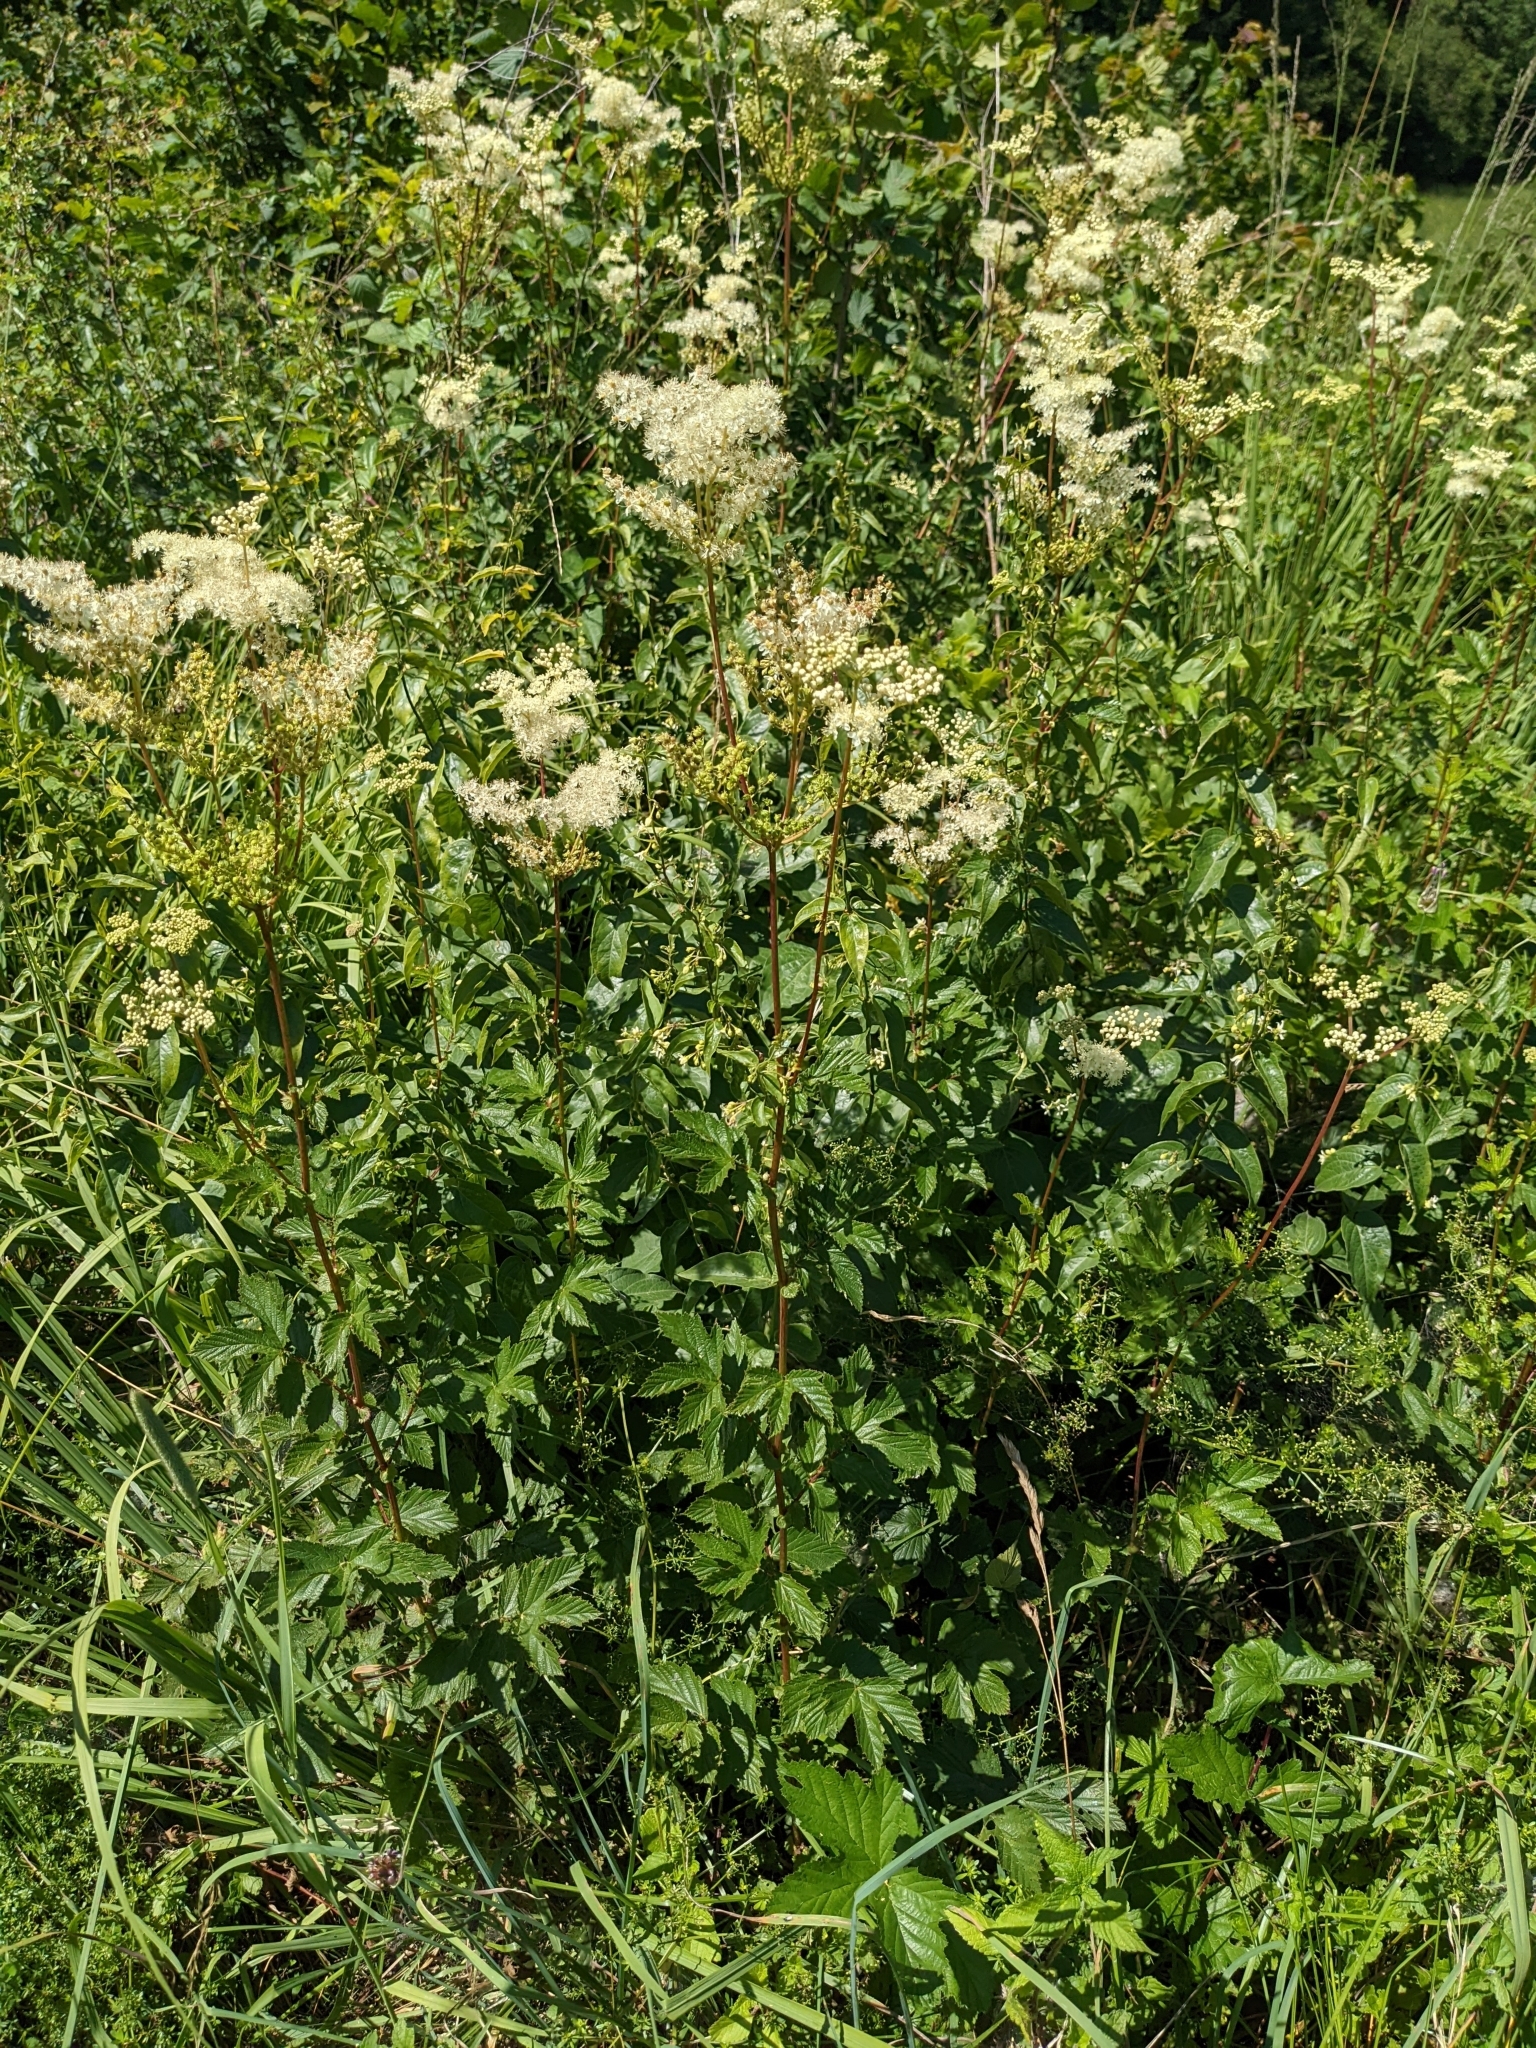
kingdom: Plantae
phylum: Tracheophyta
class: Magnoliopsida
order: Rosales
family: Rosaceae
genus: Filipendula
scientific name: Filipendula ulmaria
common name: Meadowsweet
